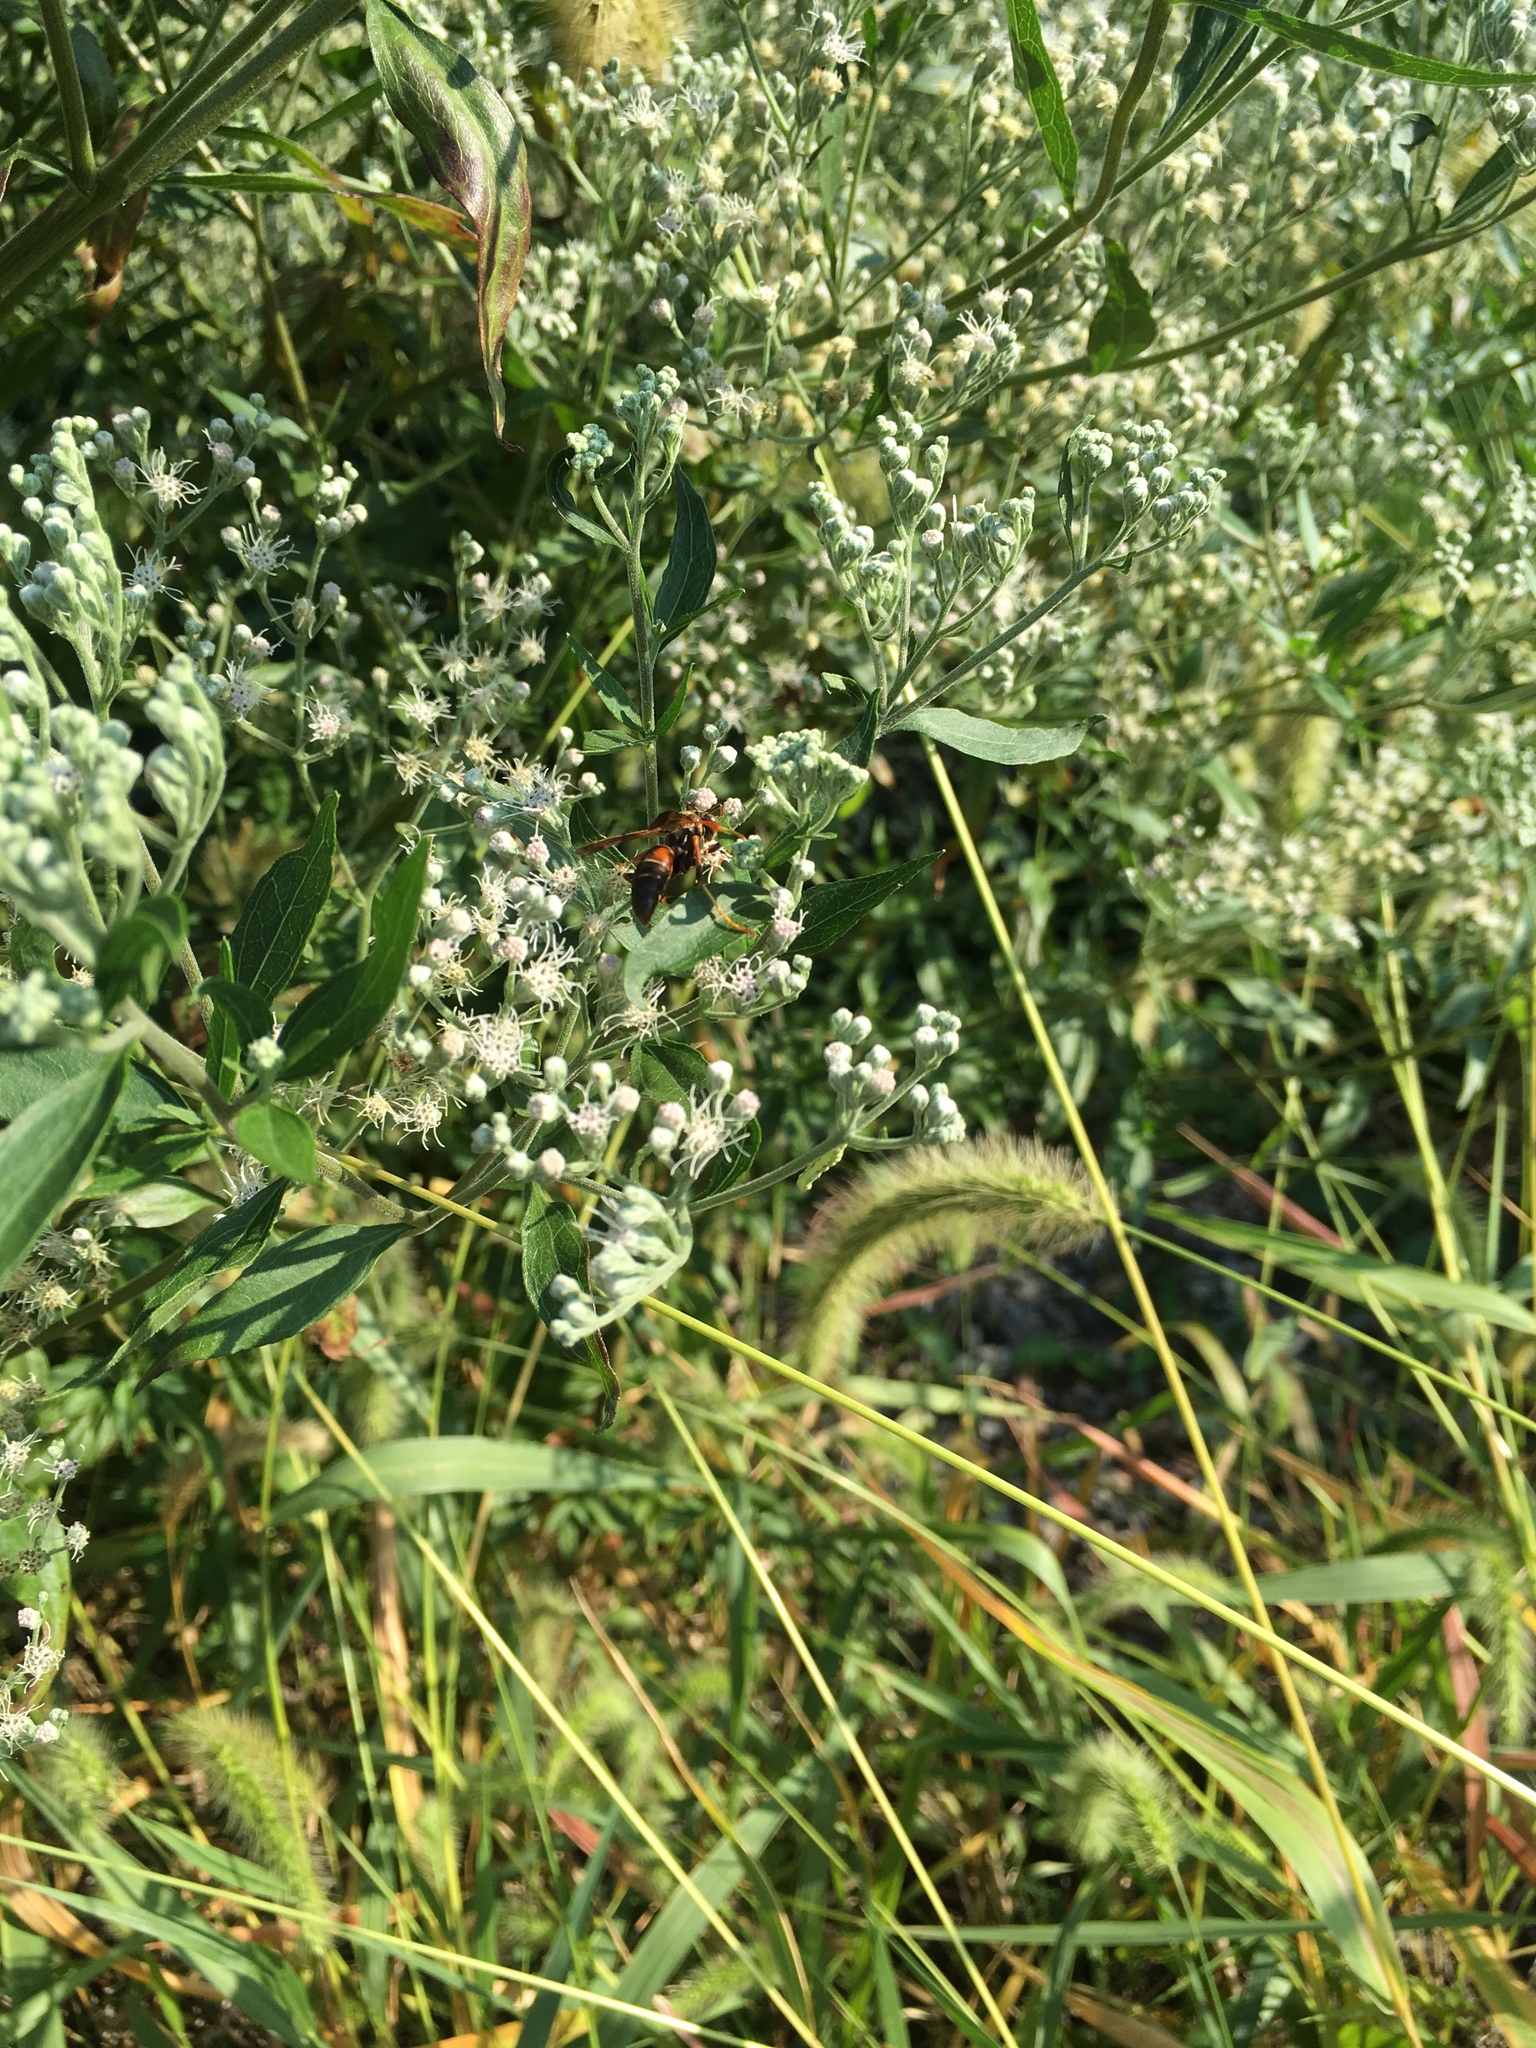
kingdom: Animalia
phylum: Arthropoda
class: Insecta
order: Hymenoptera
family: Eumenidae
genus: Polistes
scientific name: Polistes fuscatus
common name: Dark paper wasp
